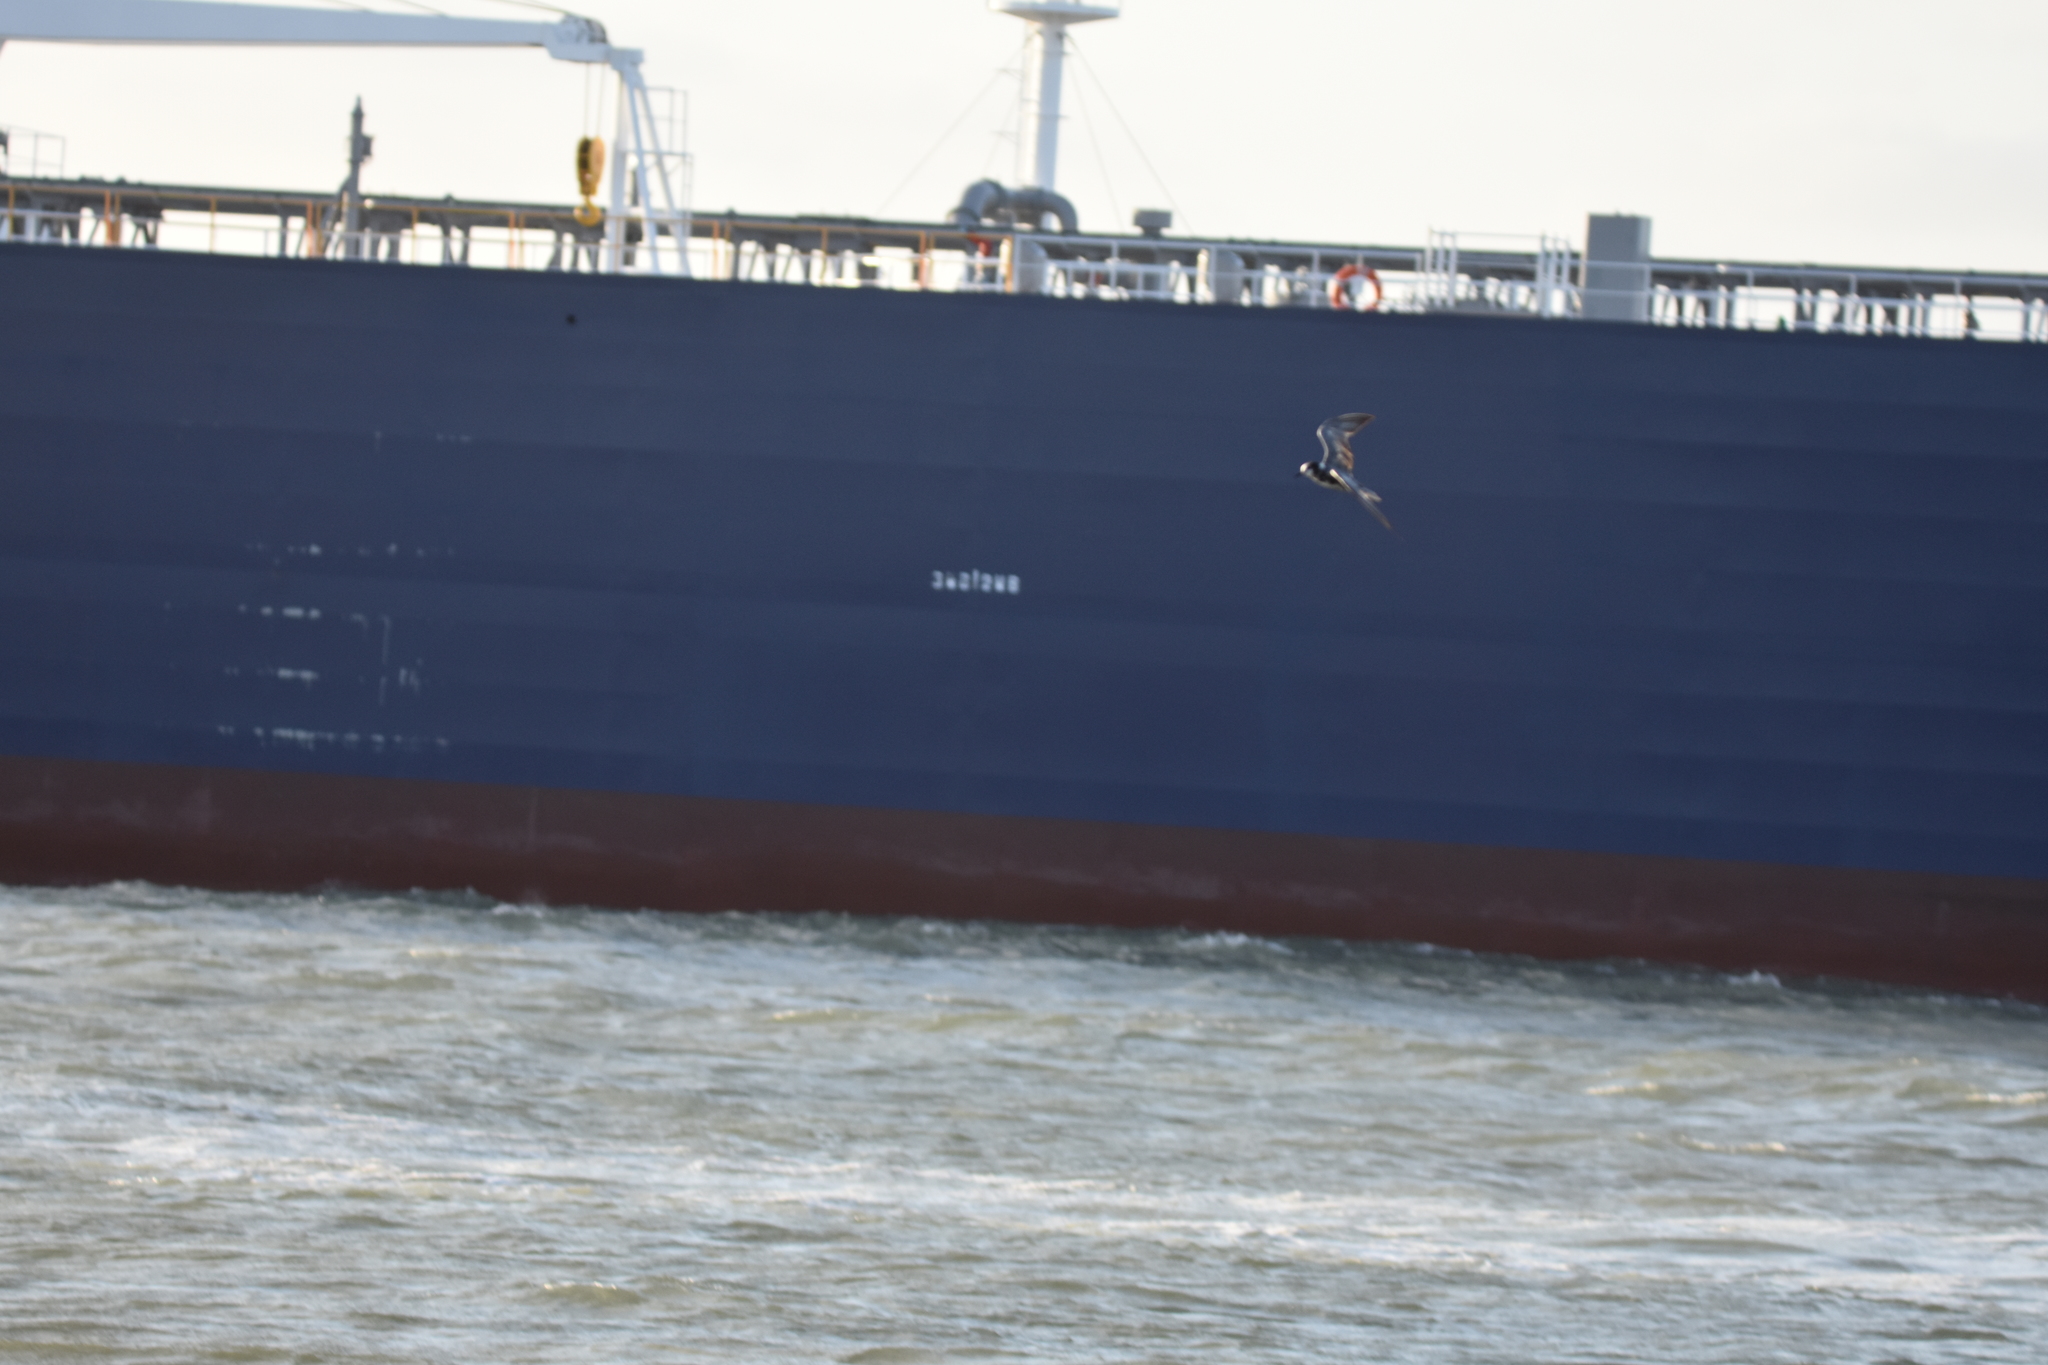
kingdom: Animalia
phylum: Chordata
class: Aves
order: Charadriiformes
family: Laridae
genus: Chlidonias
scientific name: Chlidonias niger
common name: Black tern
